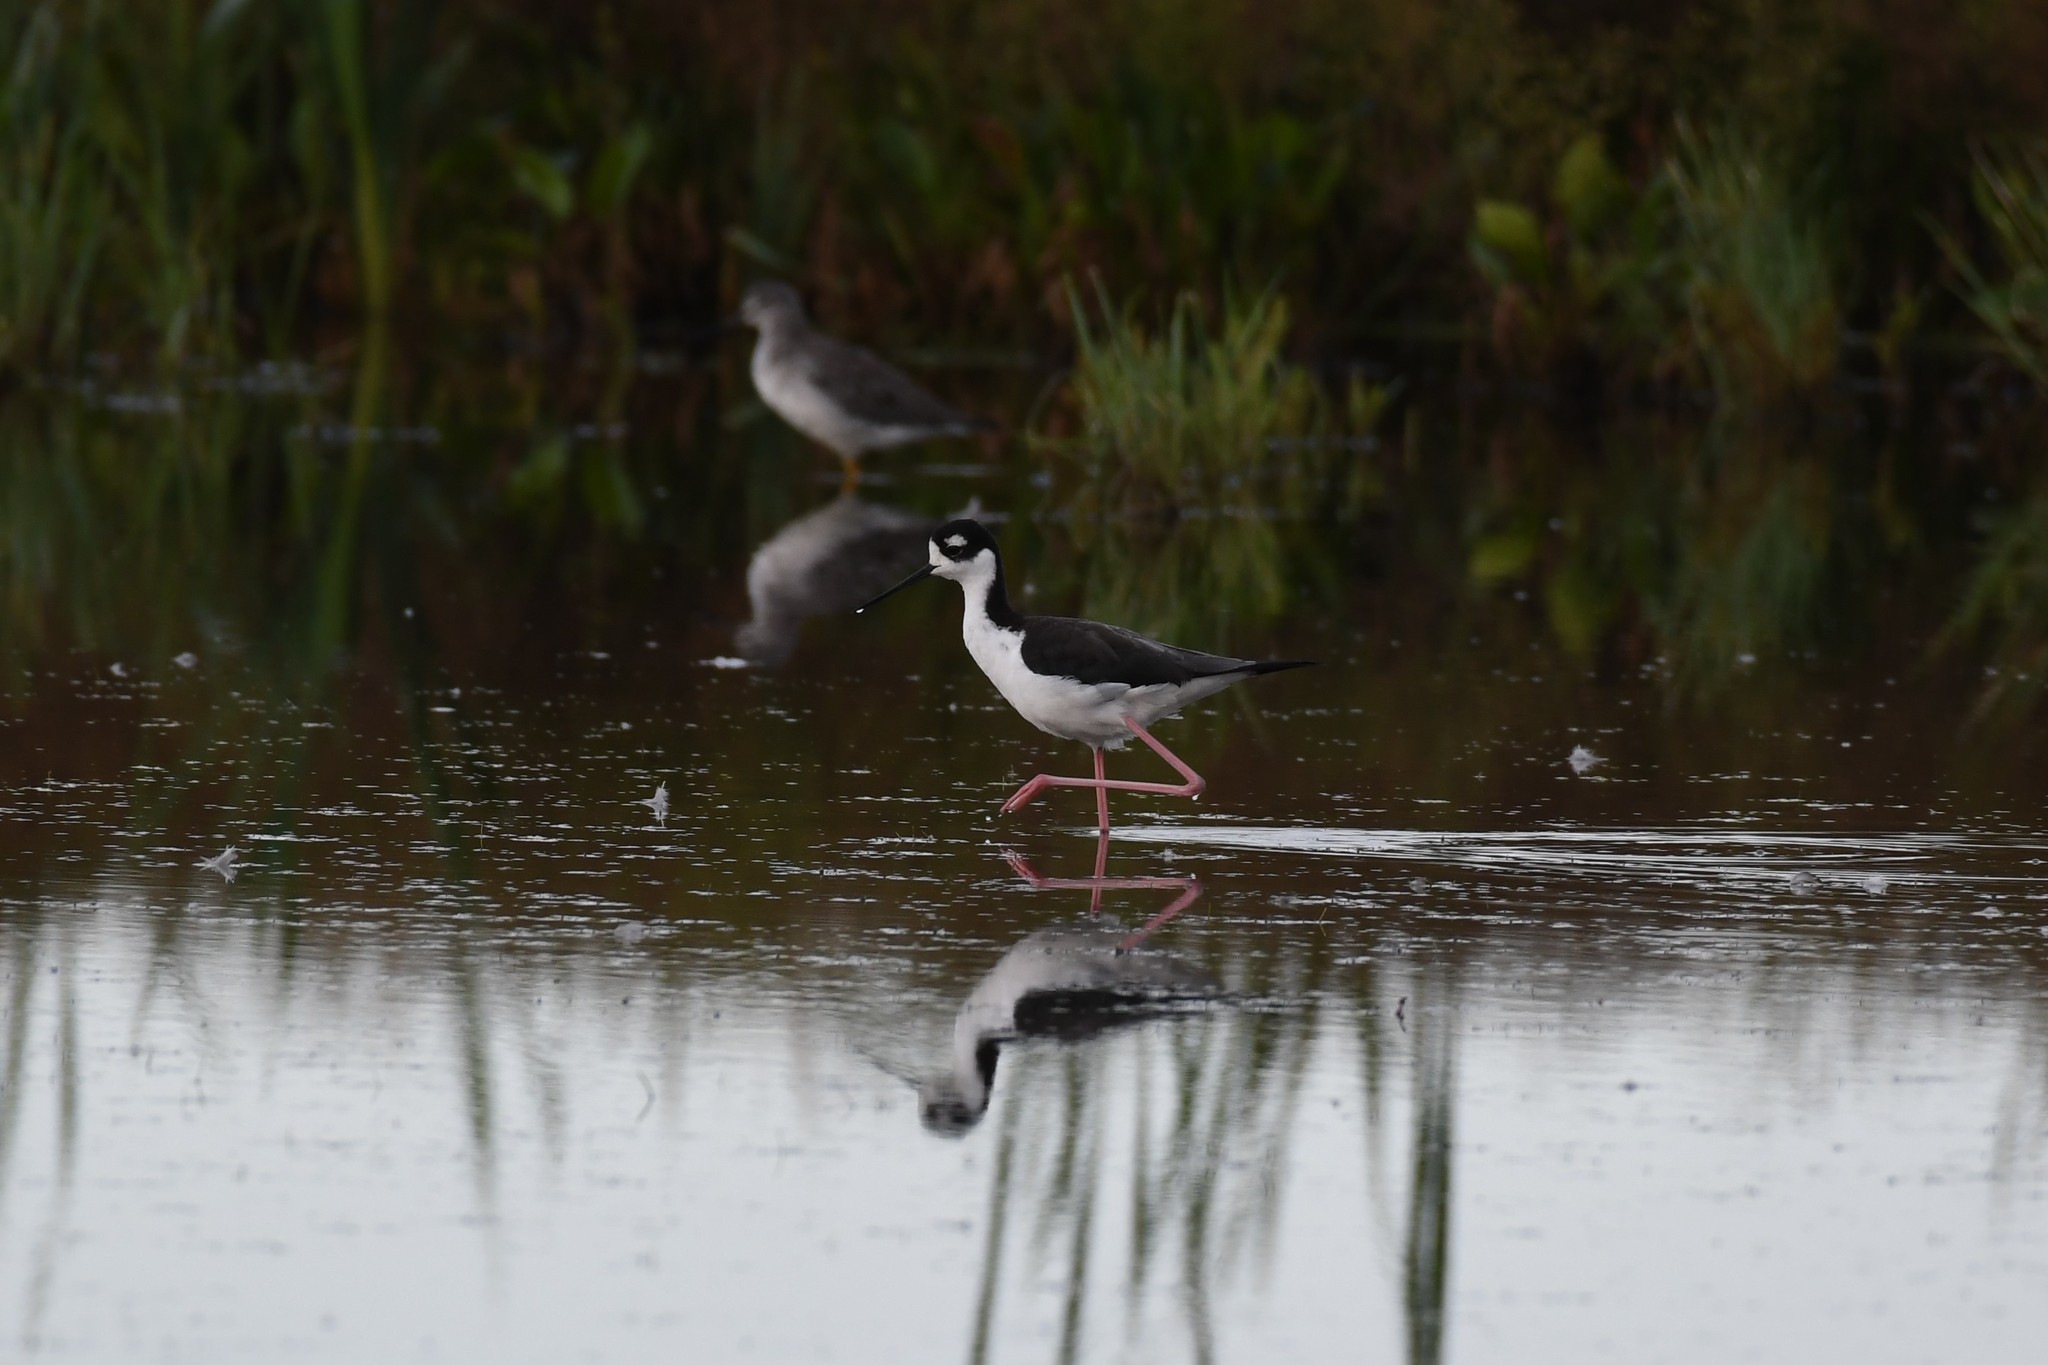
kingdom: Animalia
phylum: Chordata
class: Aves
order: Charadriiformes
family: Recurvirostridae
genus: Himantopus
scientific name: Himantopus mexicanus
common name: Black-necked stilt
